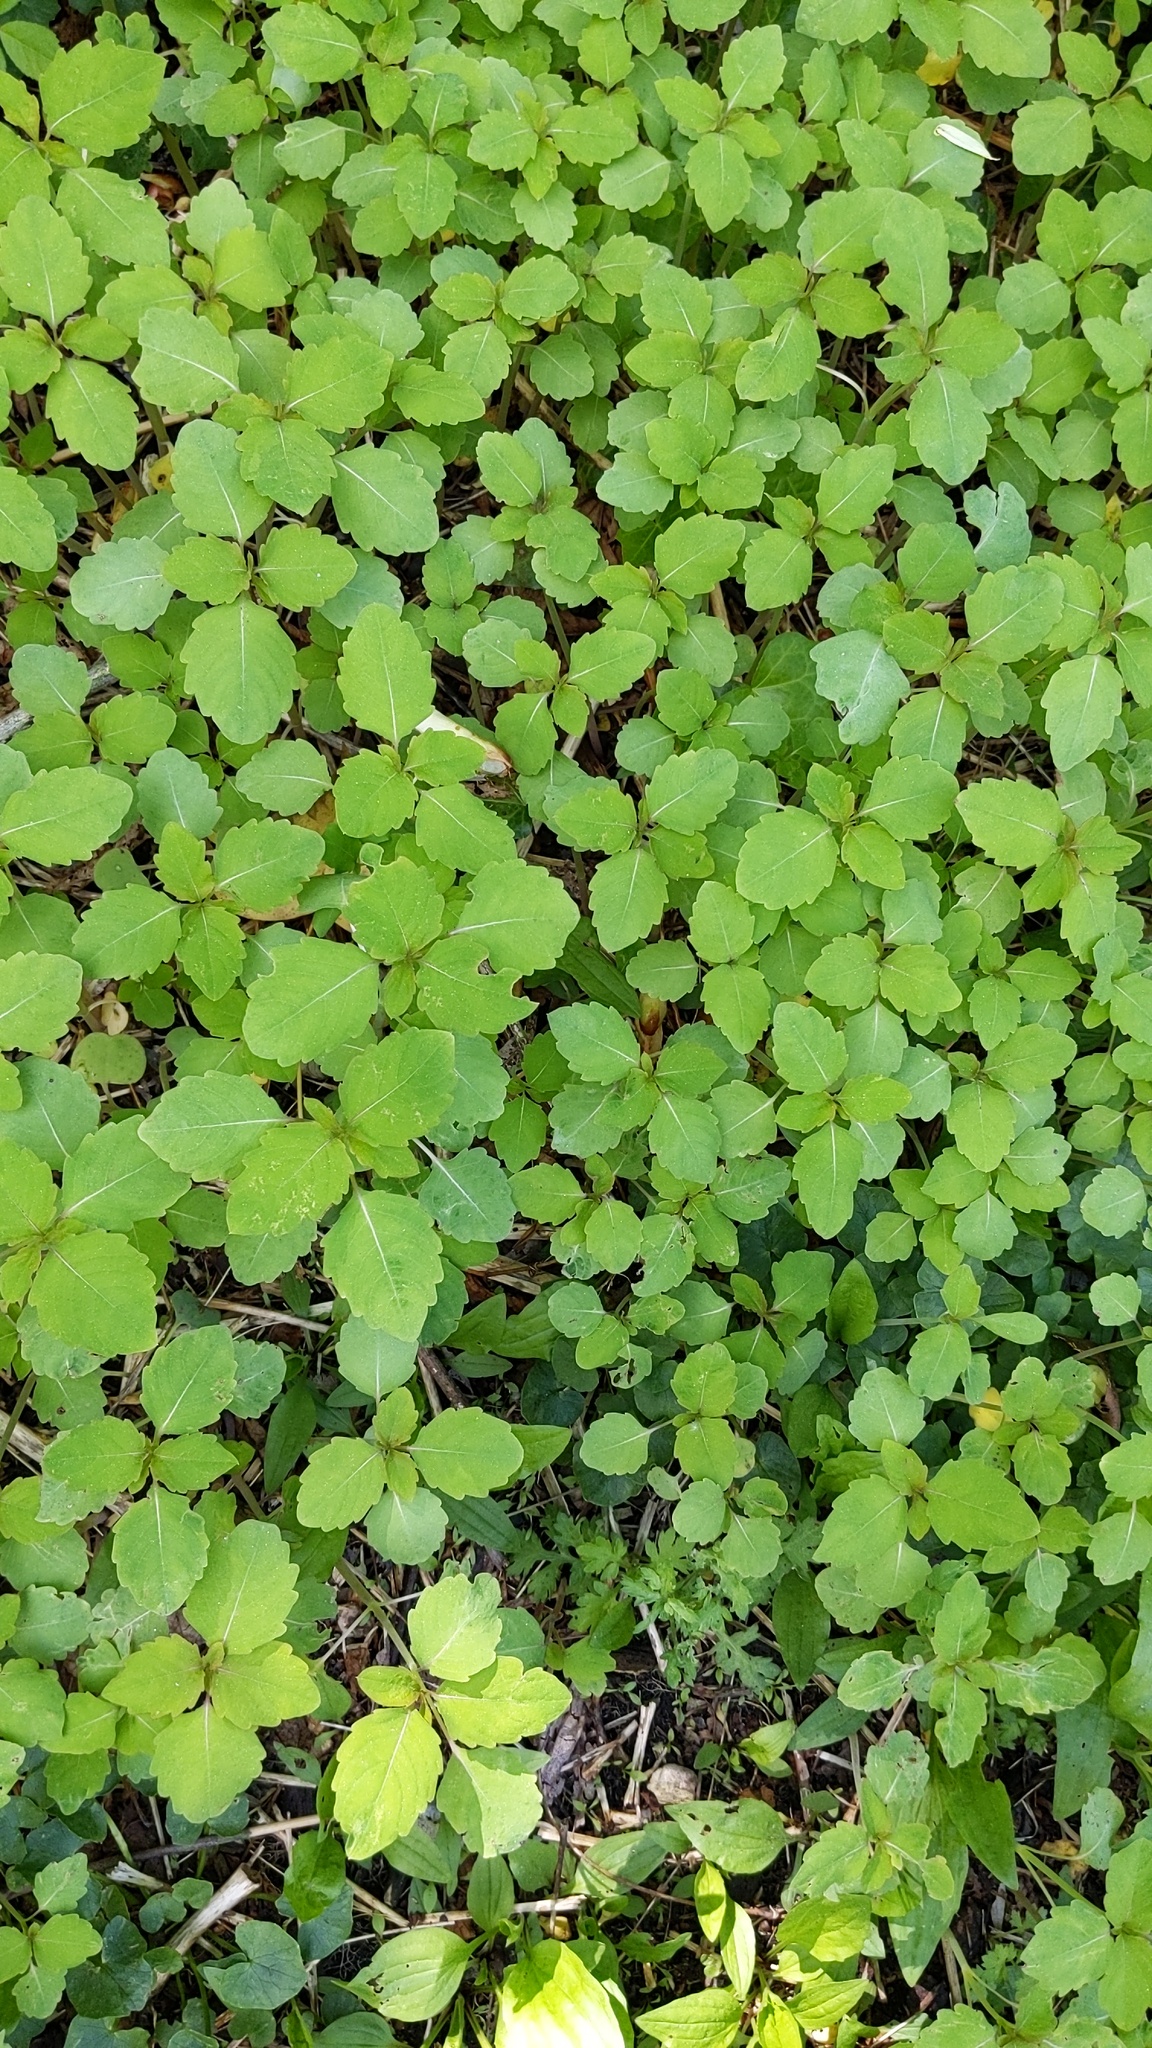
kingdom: Plantae
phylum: Tracheophyta
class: Magnoliopsida
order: Ericales
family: Balsaminaceae
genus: Impatiens
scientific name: Impatiens capensis
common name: Orange balsam
